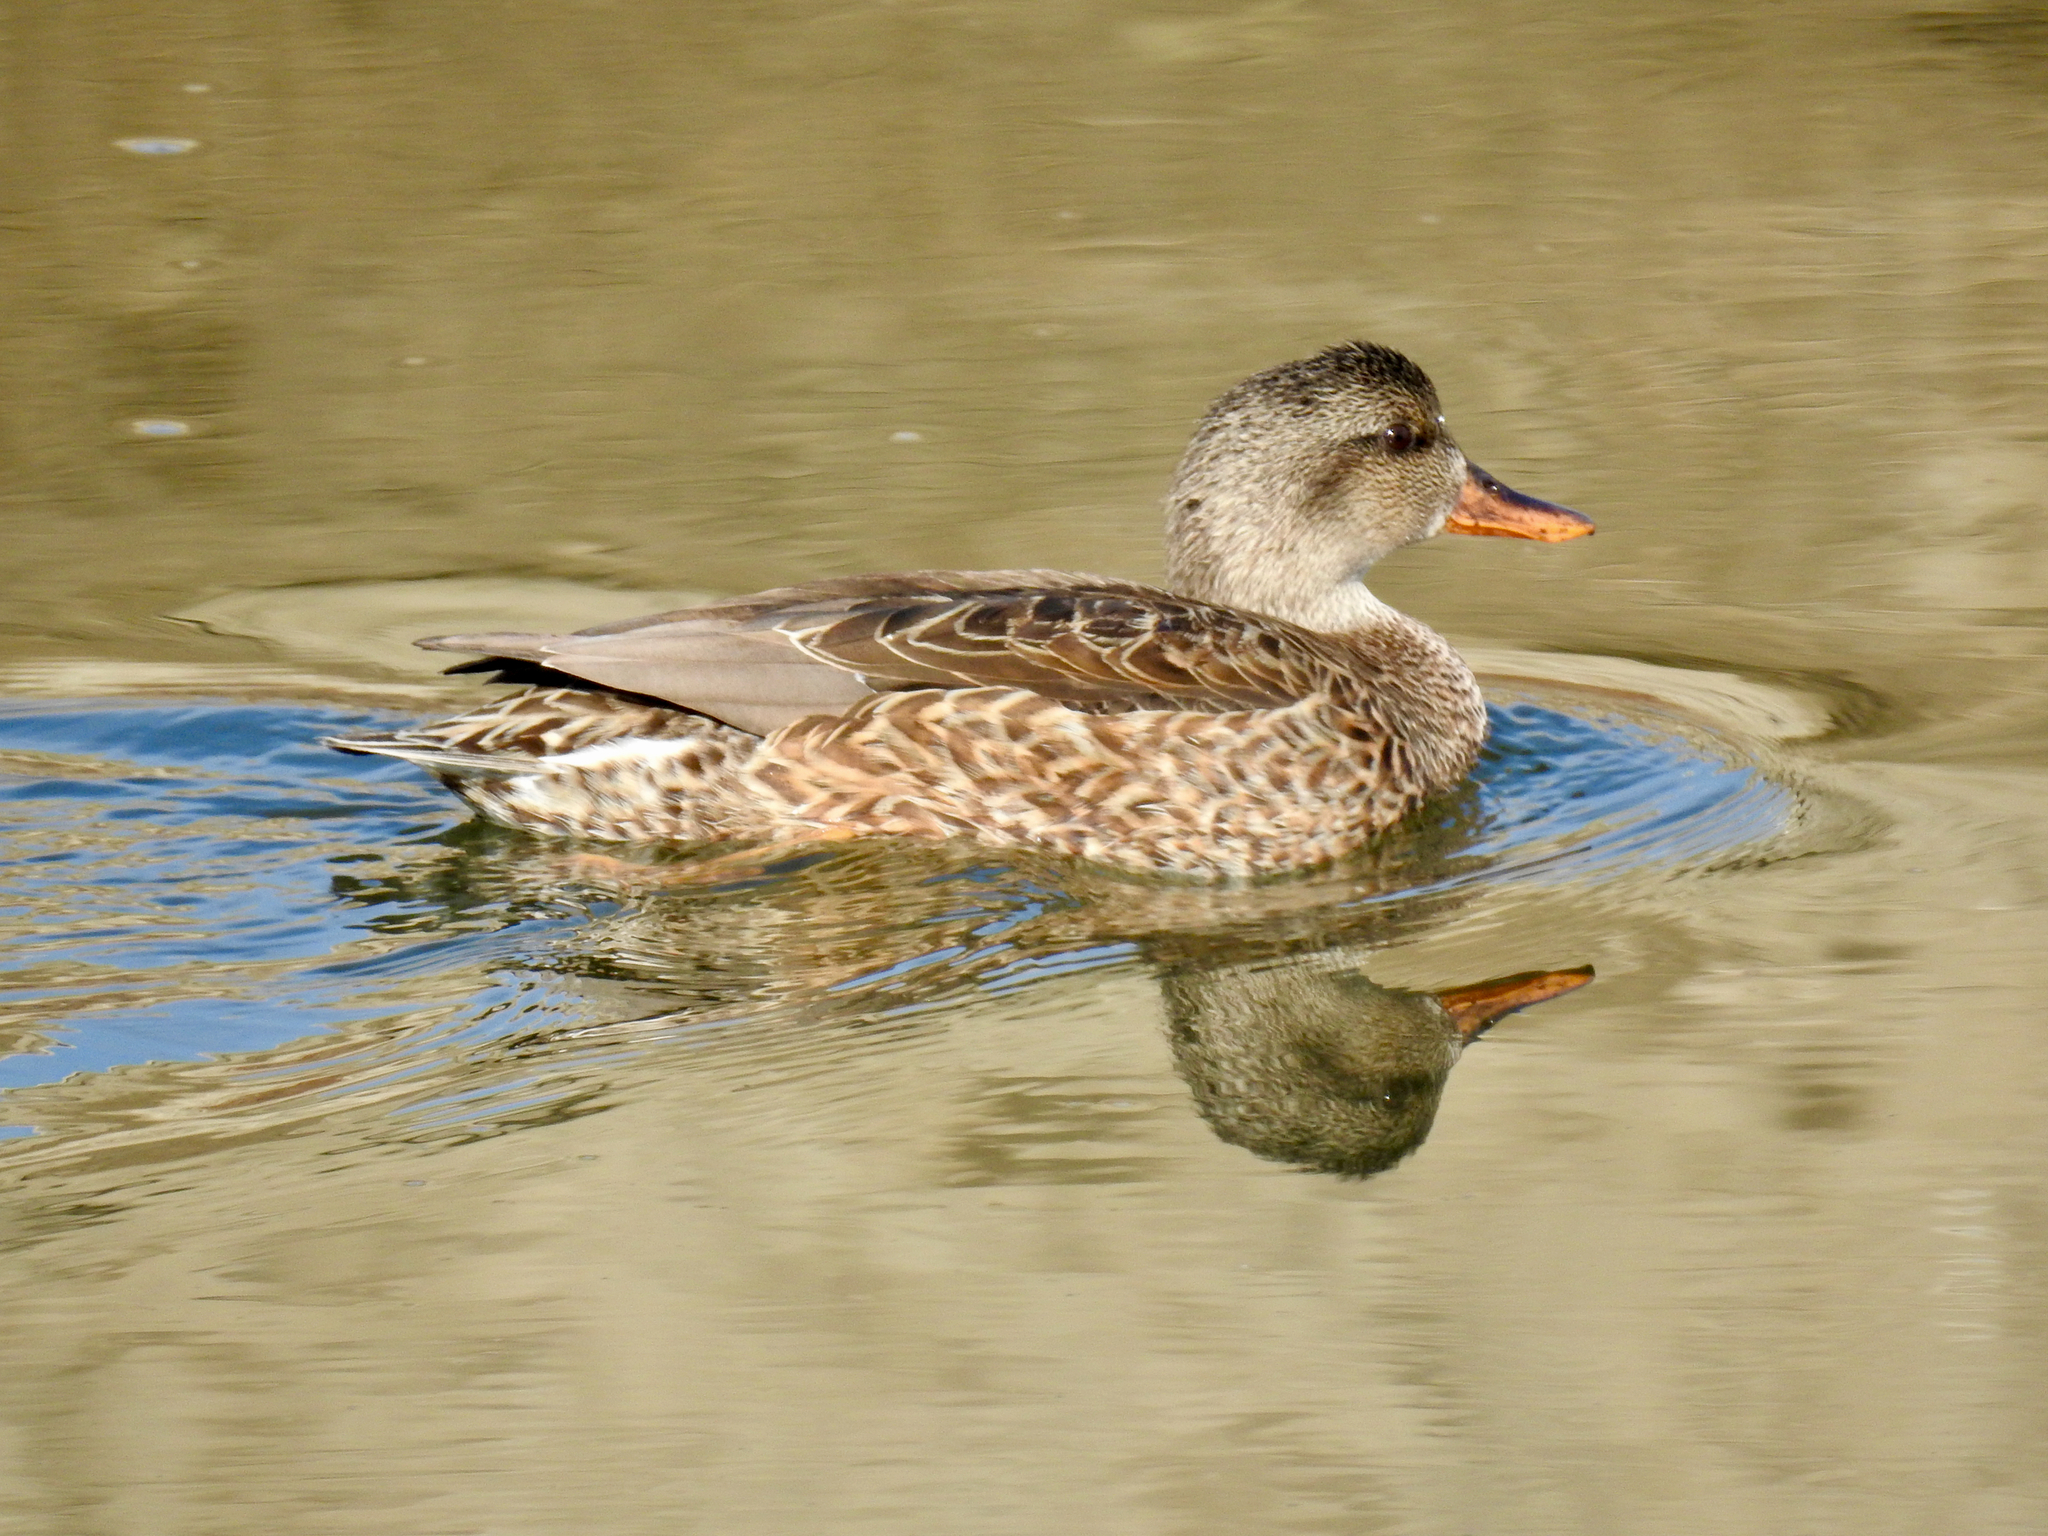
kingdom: Animalia
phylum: Chordata
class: Aves
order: Anseriformes
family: Anatidae
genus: Mareca
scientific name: Mareca strepera
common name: Gadwall
